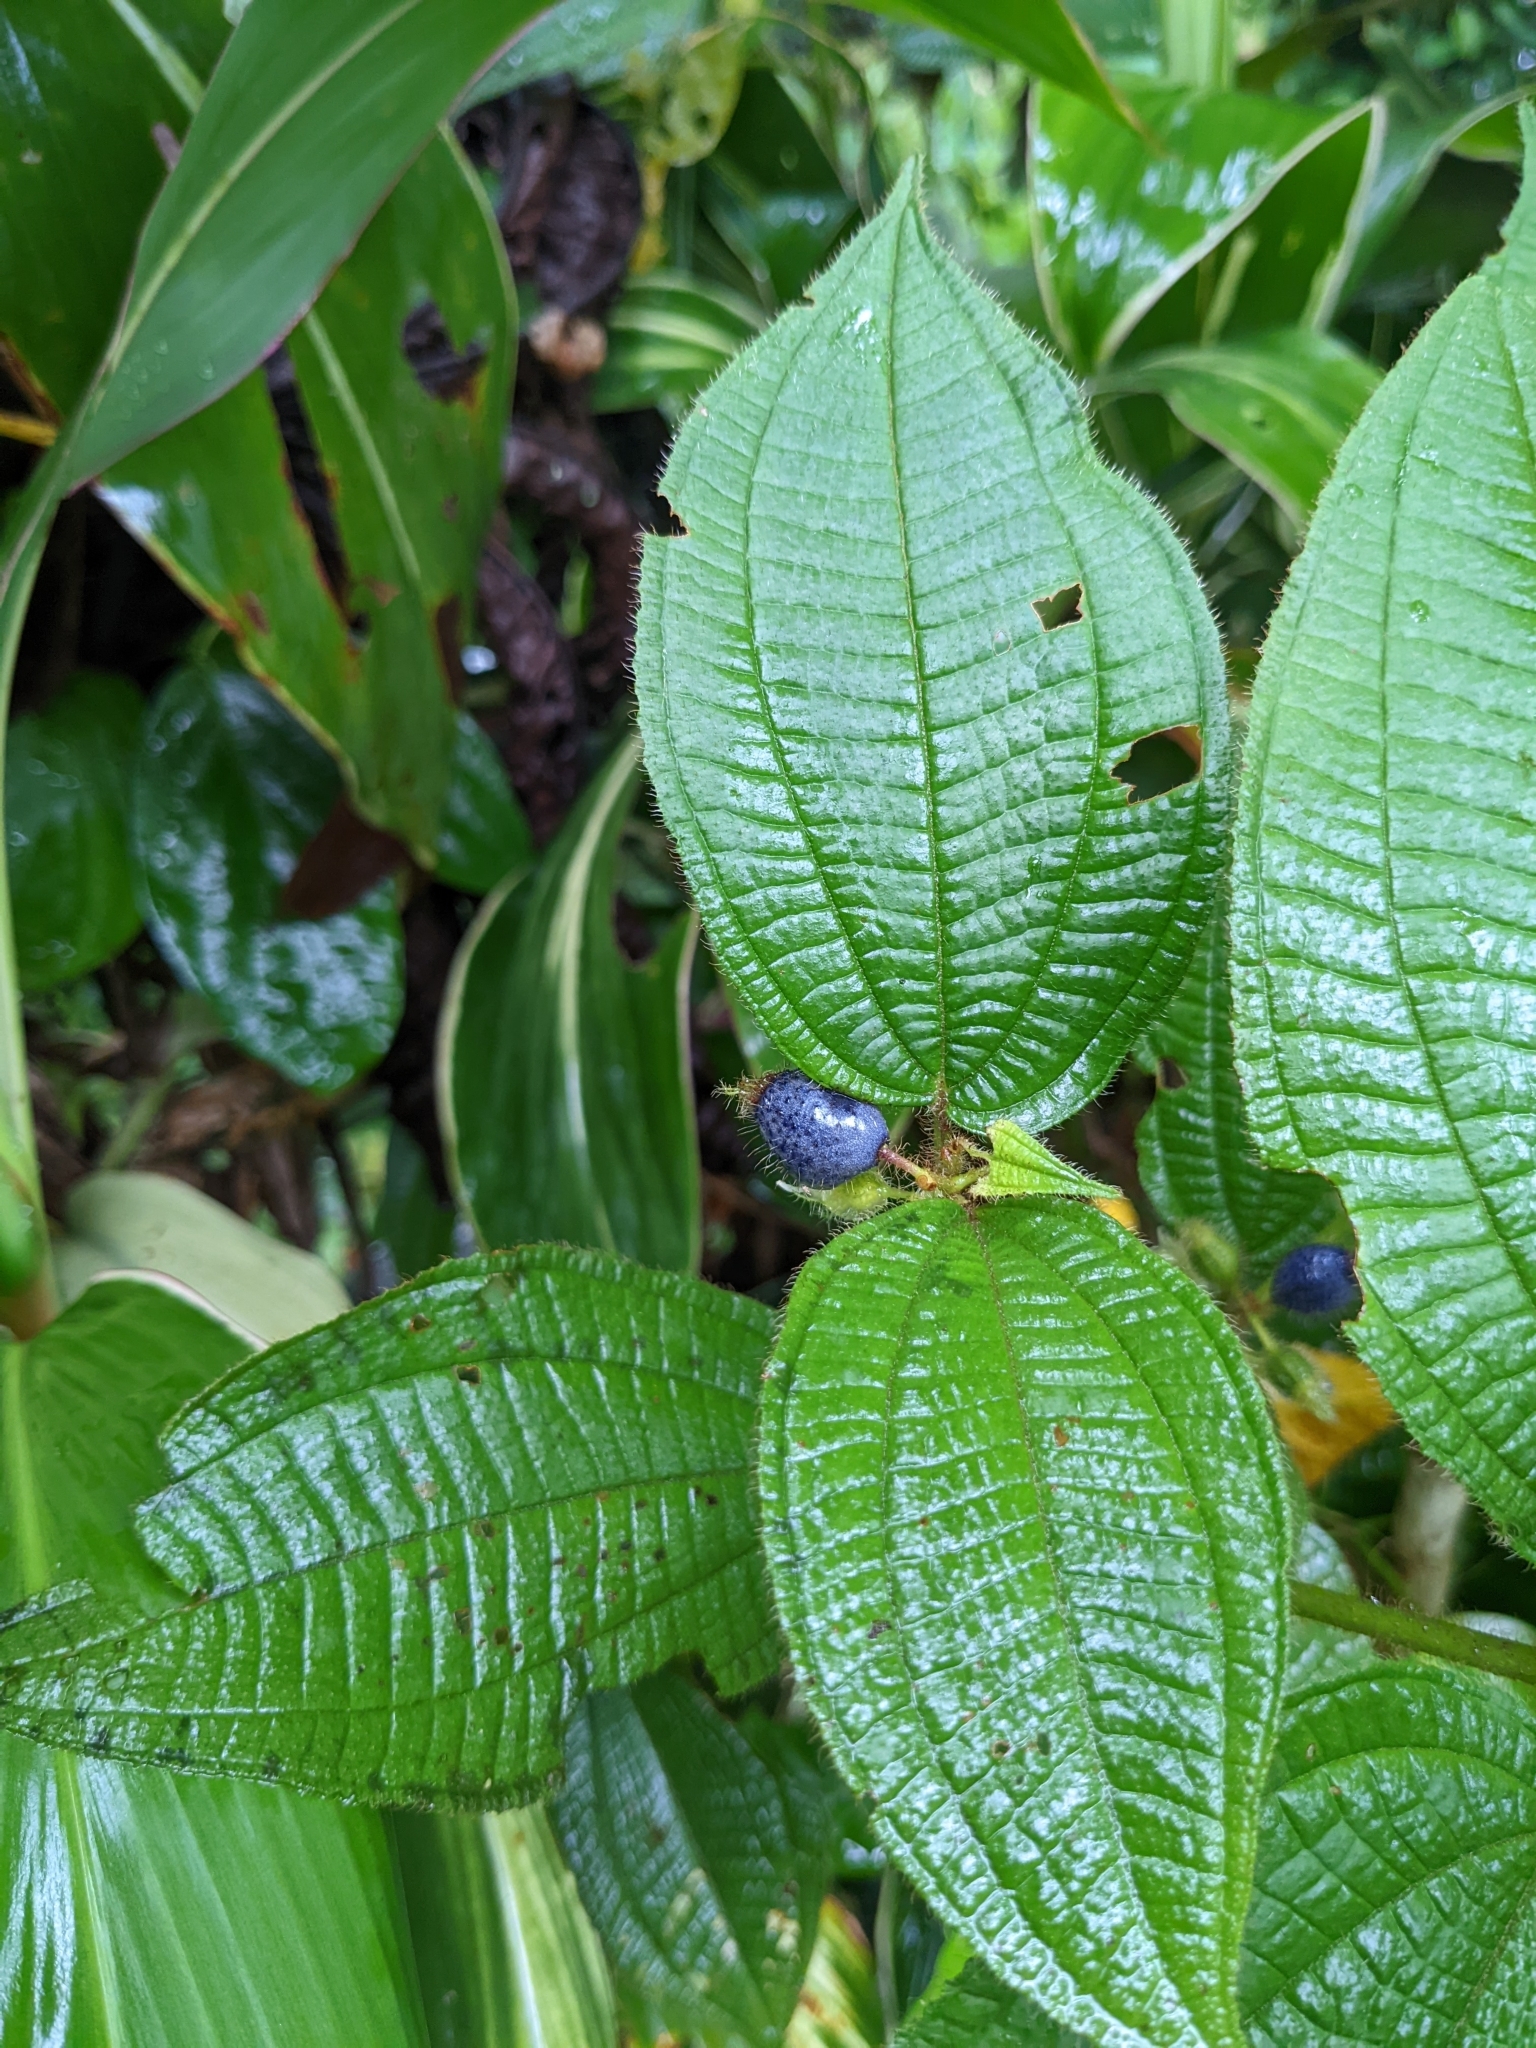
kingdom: Plantae
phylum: Tracheophyta
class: Magnoliopsida
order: Myrtales
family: Melastomataceae
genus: Miconia
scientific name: Miconia crenata
